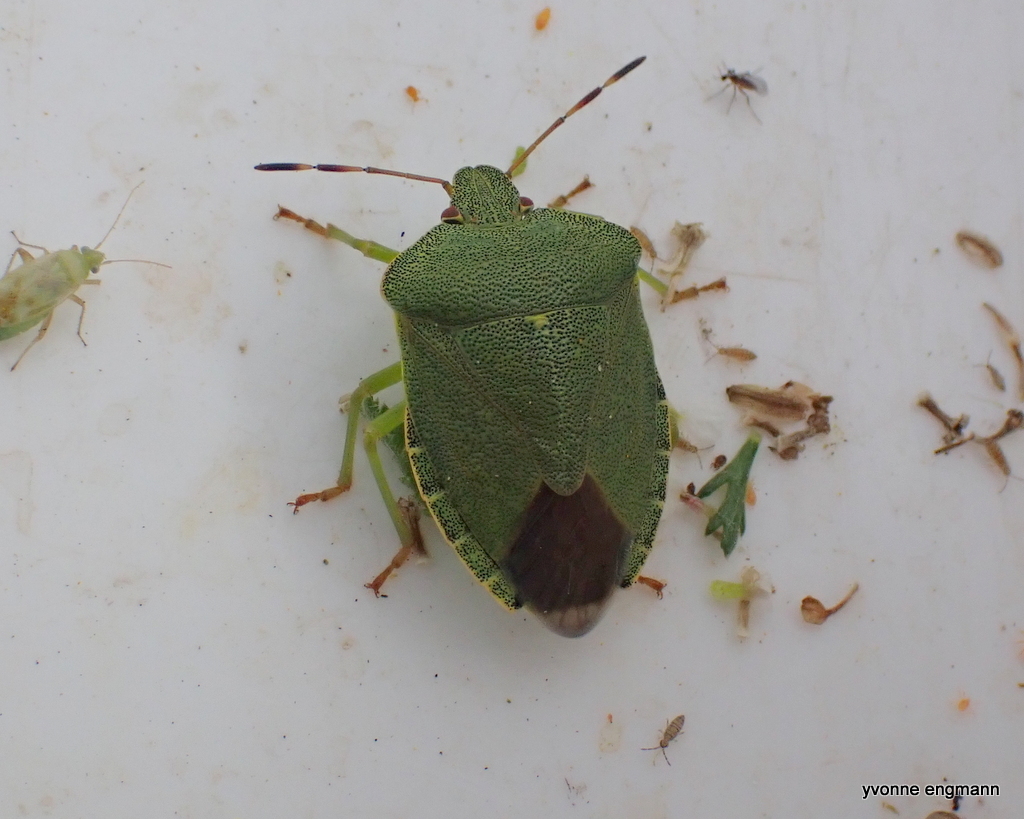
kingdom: Animalia
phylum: Arthropoda
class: Insecta
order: Hemiptera
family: Pentatomidae
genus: Palomena
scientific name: Palomena prasina
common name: Green shieldbug
